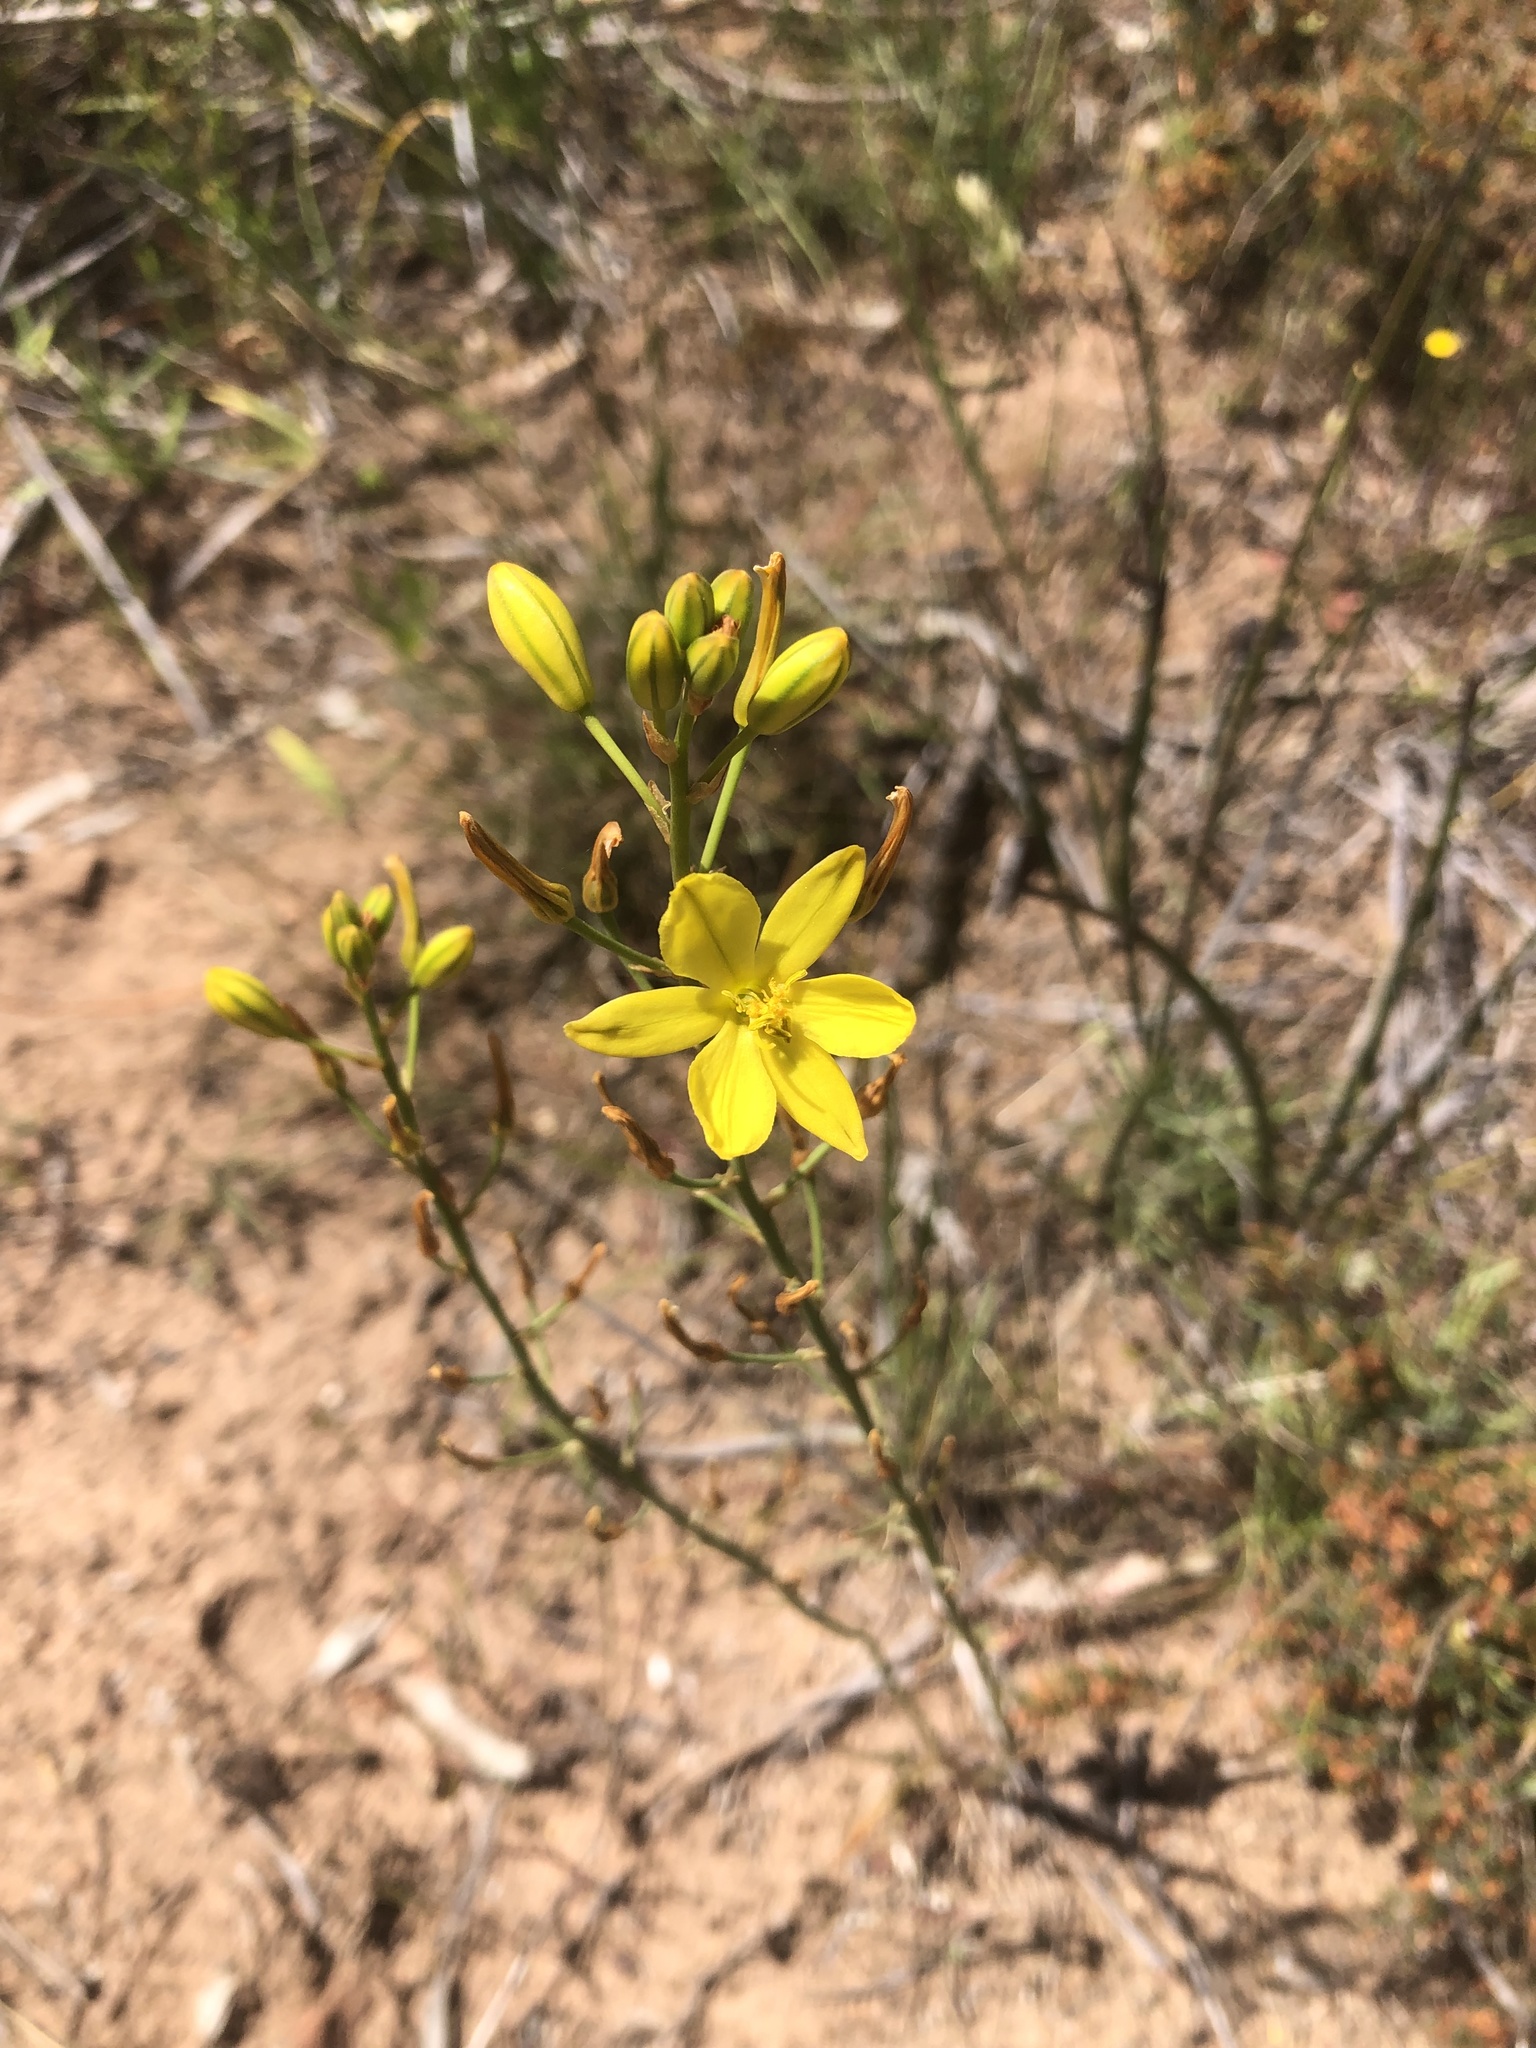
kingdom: Plantae
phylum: Tracheophyta
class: Liliopsida
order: Asparagales
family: Asphodelaceae
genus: Bulbine
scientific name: Bulbine bulbosa
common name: Golden-lily
